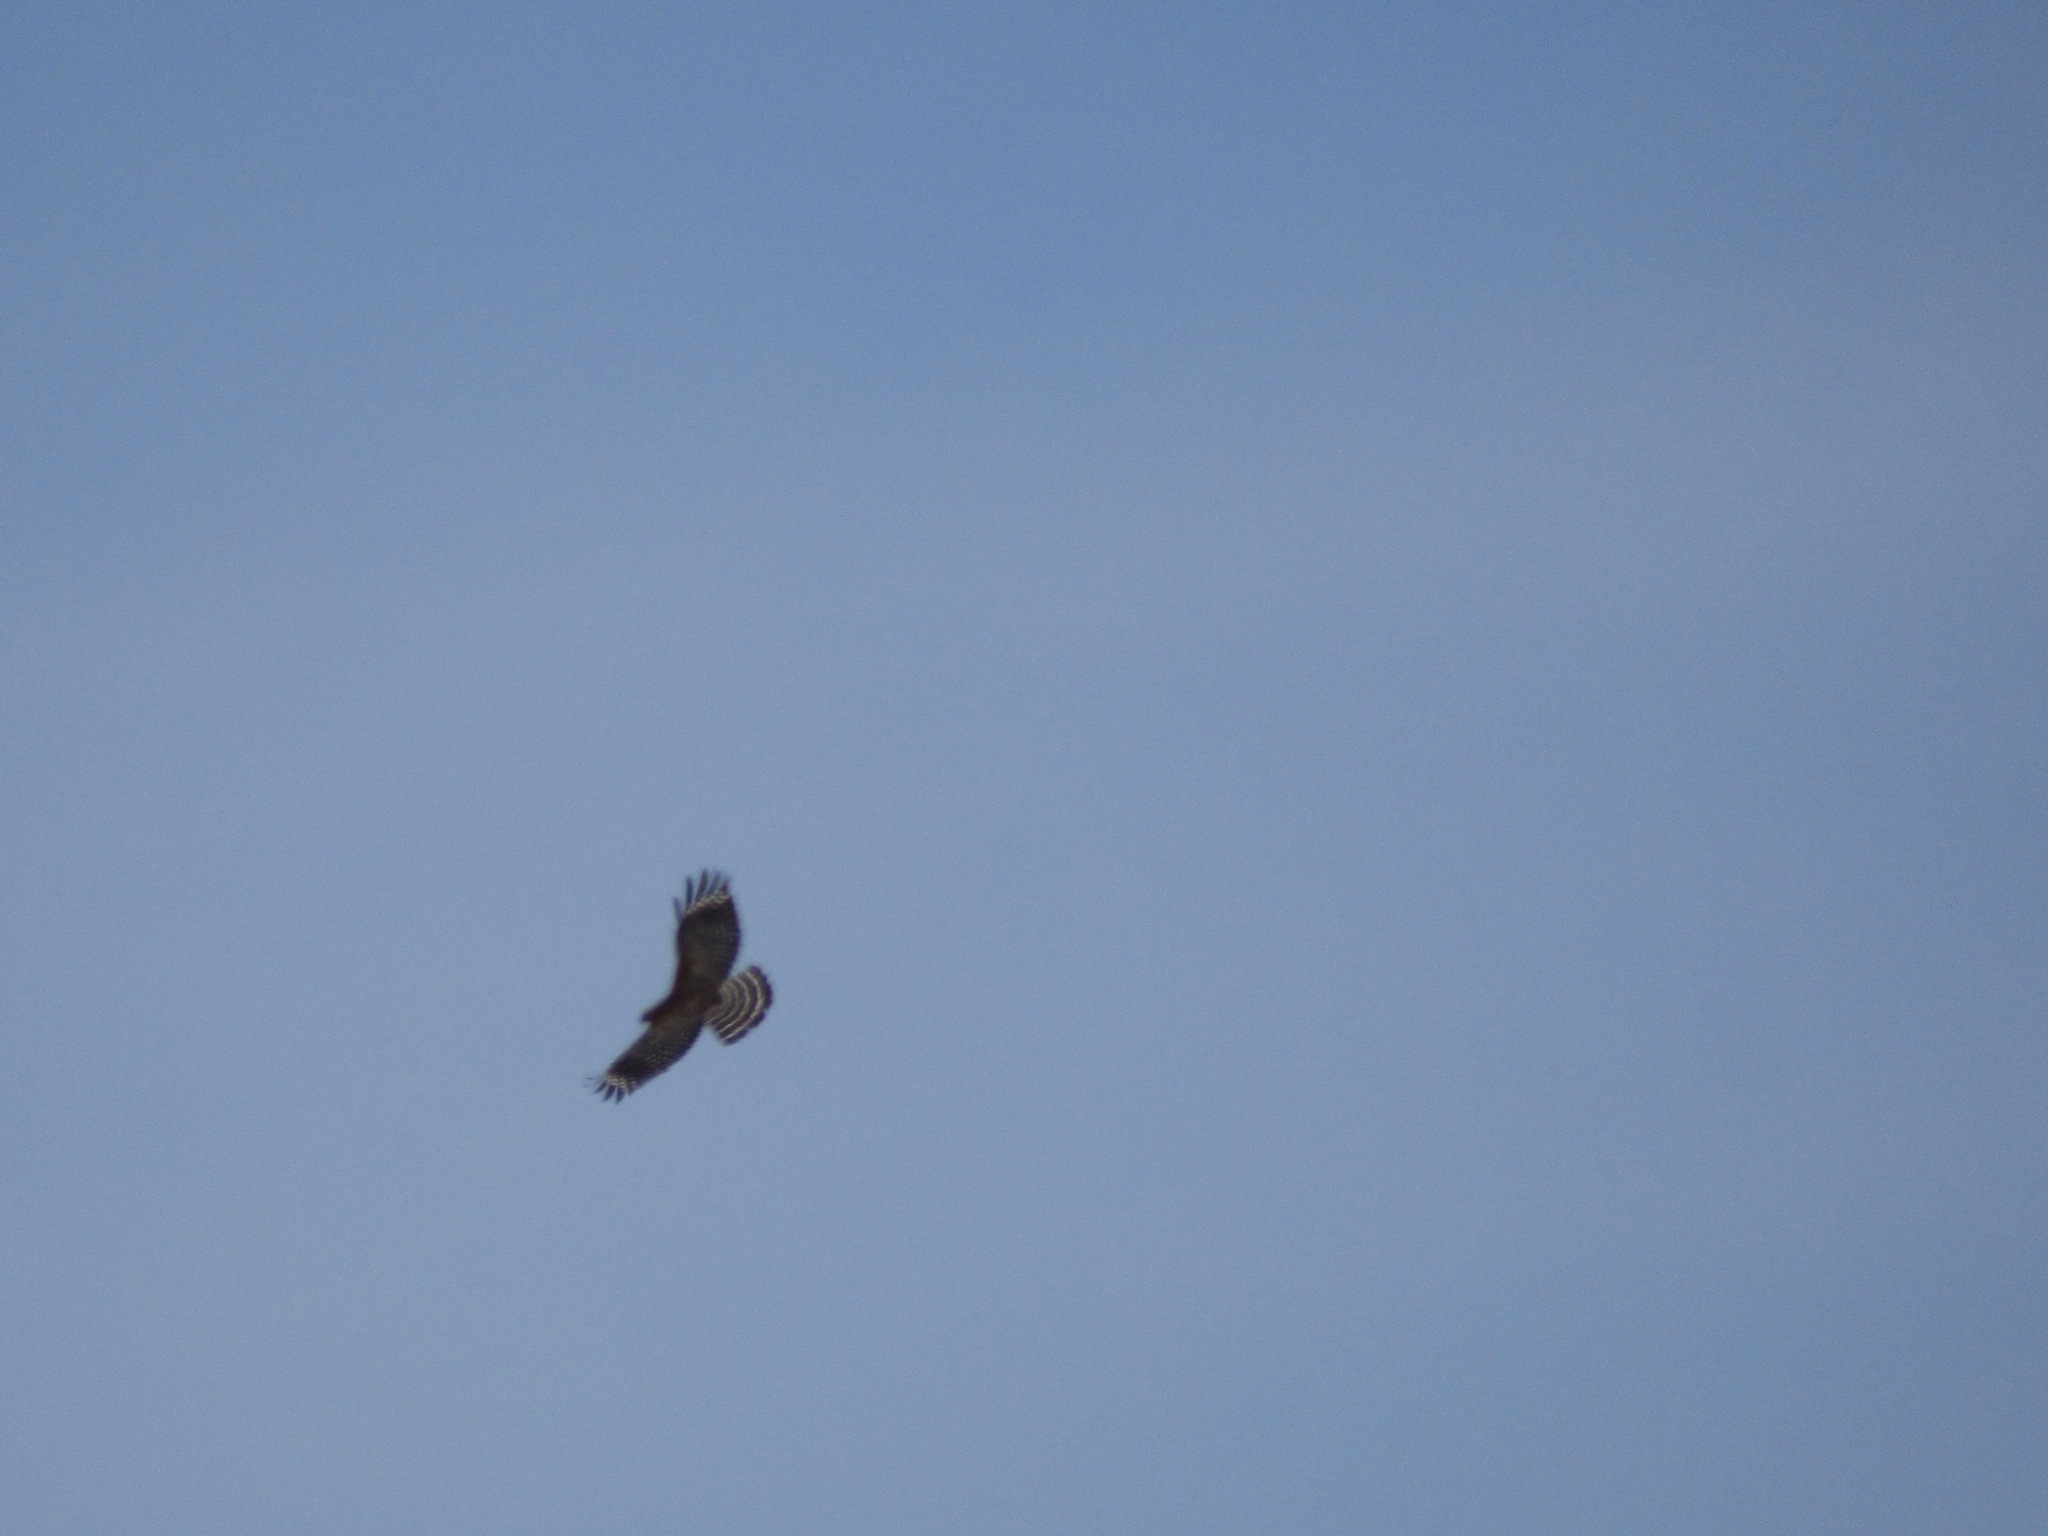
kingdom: Animalia
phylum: Chordata
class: Aves
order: Accipitriformes
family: Accipitridae
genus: Buteo
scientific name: Buteo lineatus
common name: Red-shouldered hawk
